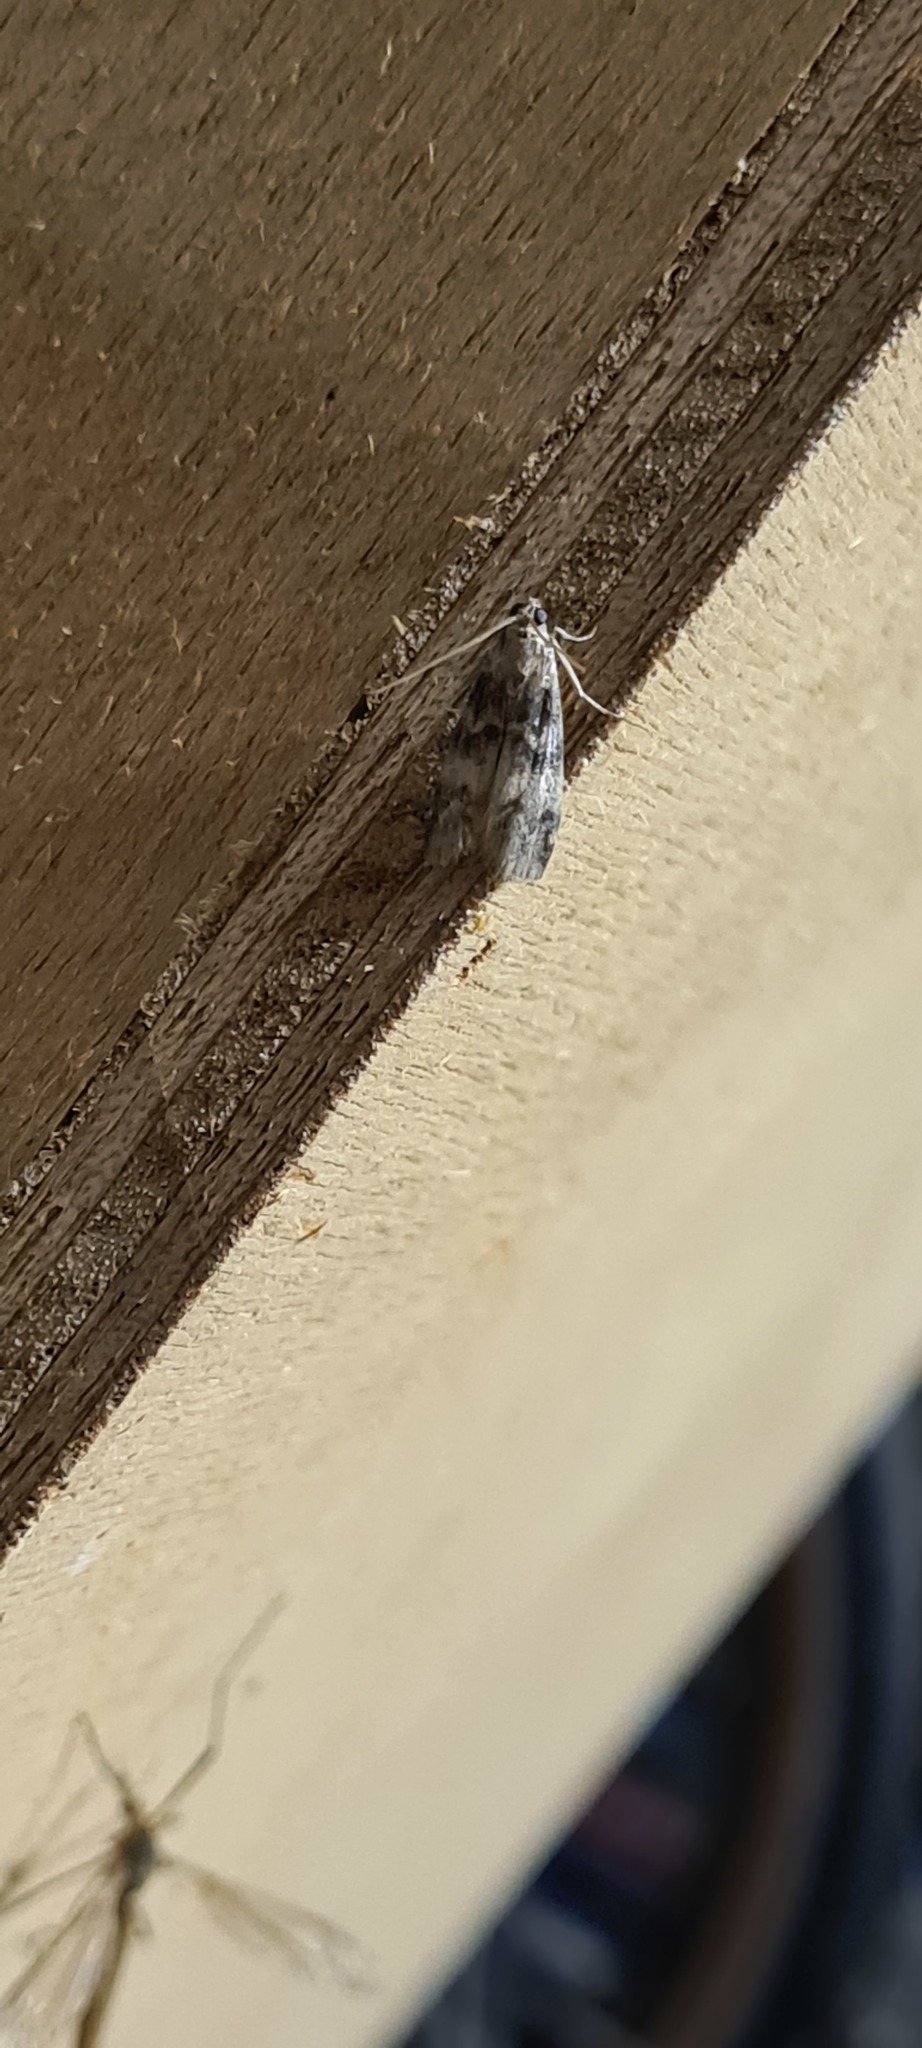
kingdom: Animalia
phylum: Arthropoda
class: Insecta
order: Lepidoptera
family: Pyralidae
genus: Euzophera
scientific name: Euzophera pinguis
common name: Ash-bark knot-horn
